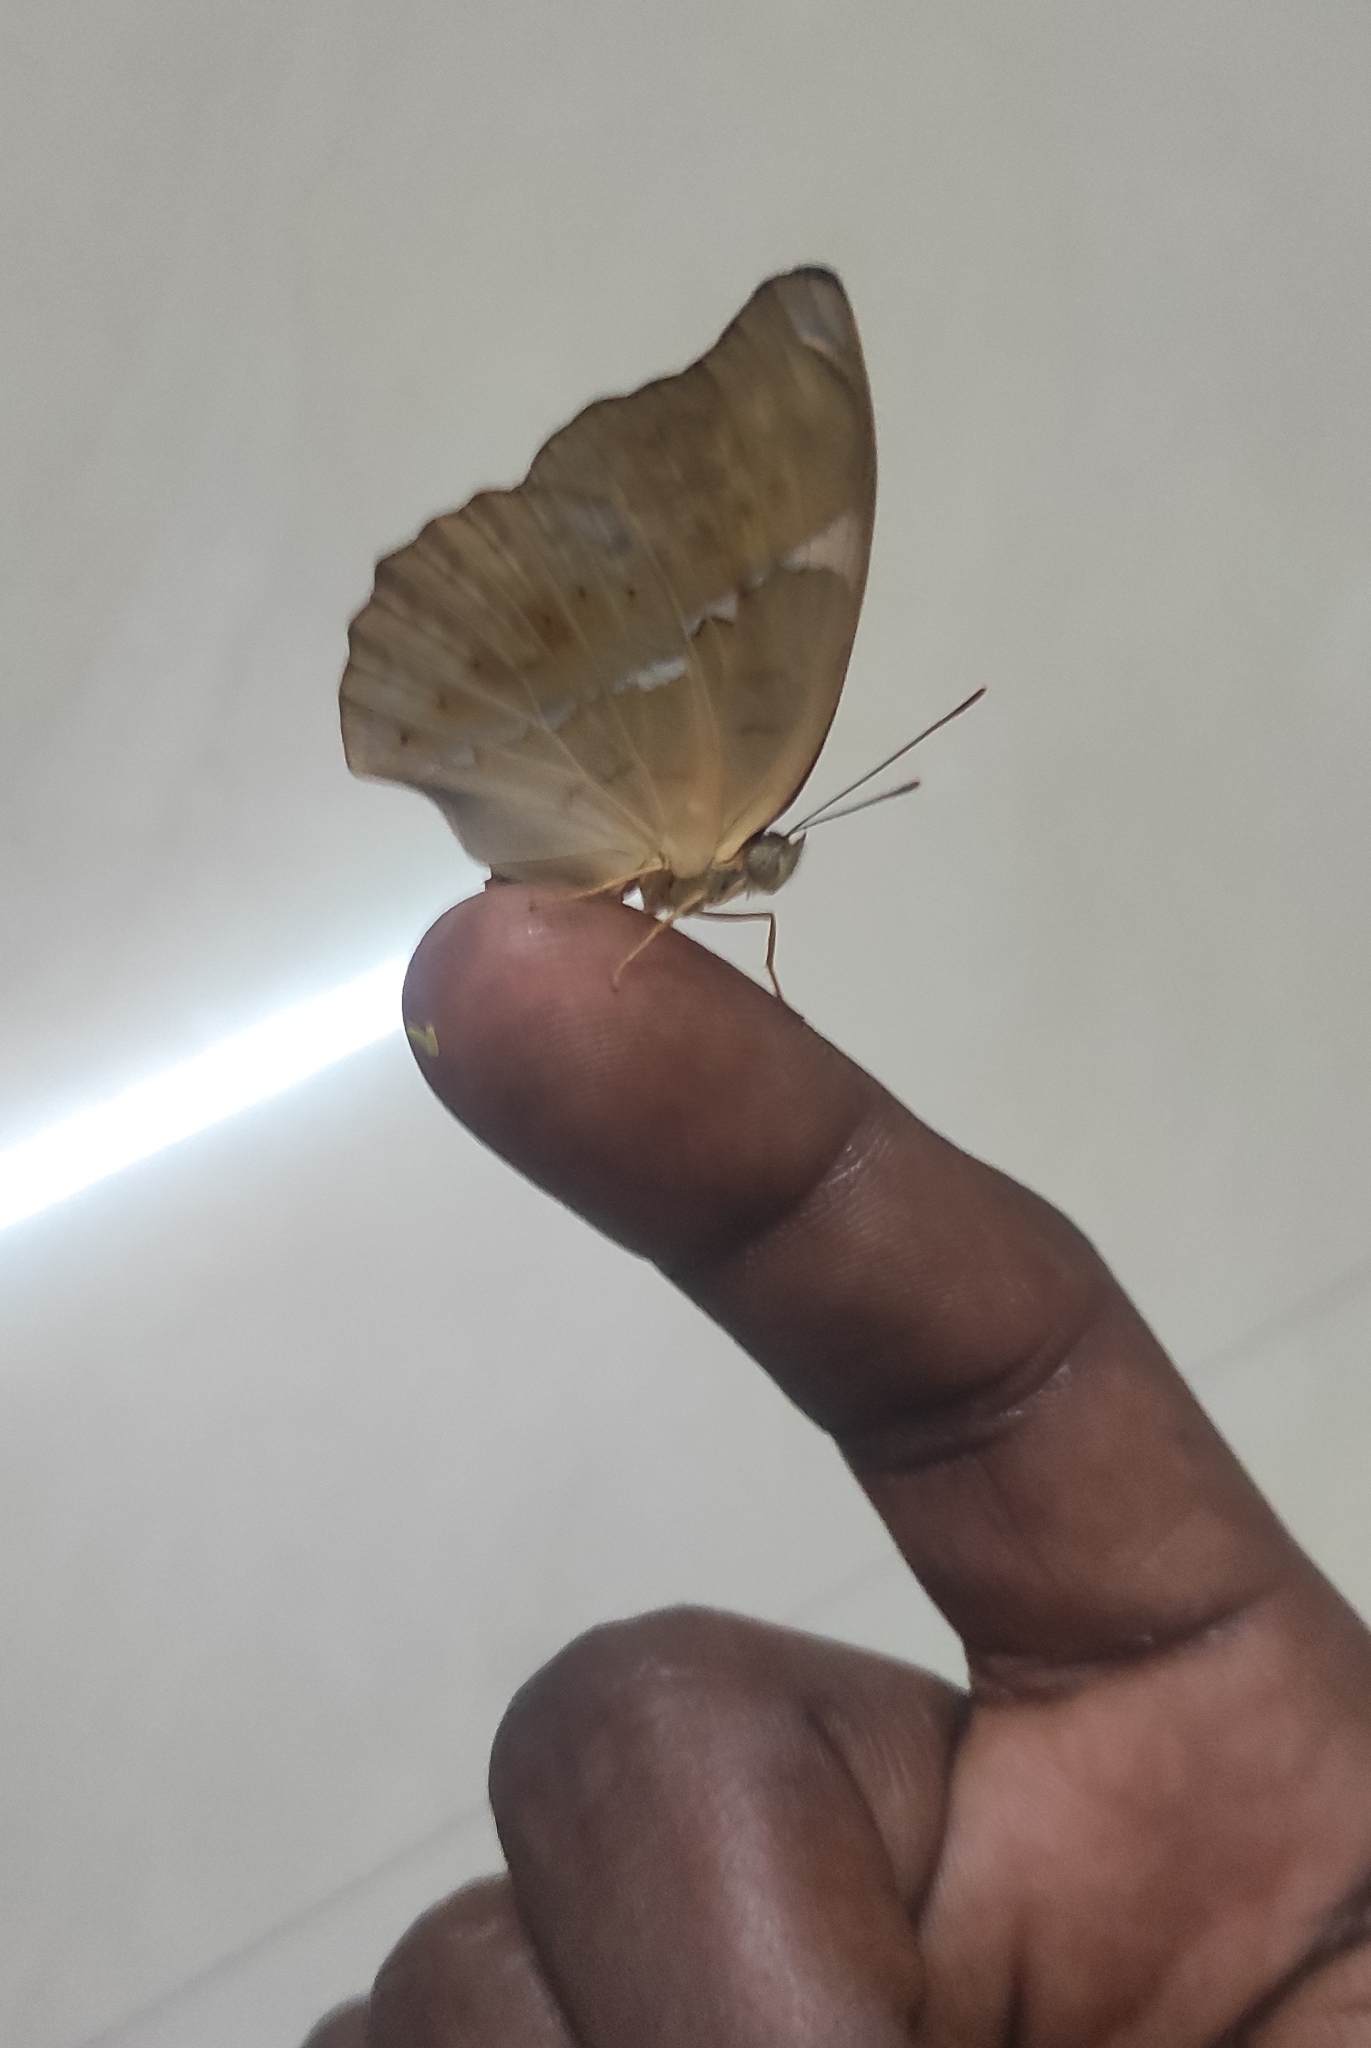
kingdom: Animalia
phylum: Arthropoda
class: Insecta
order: Lepidoptera
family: Nymphalidae
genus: Cirrochroa
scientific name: Cirrochroa thais
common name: Tamil yeoman
